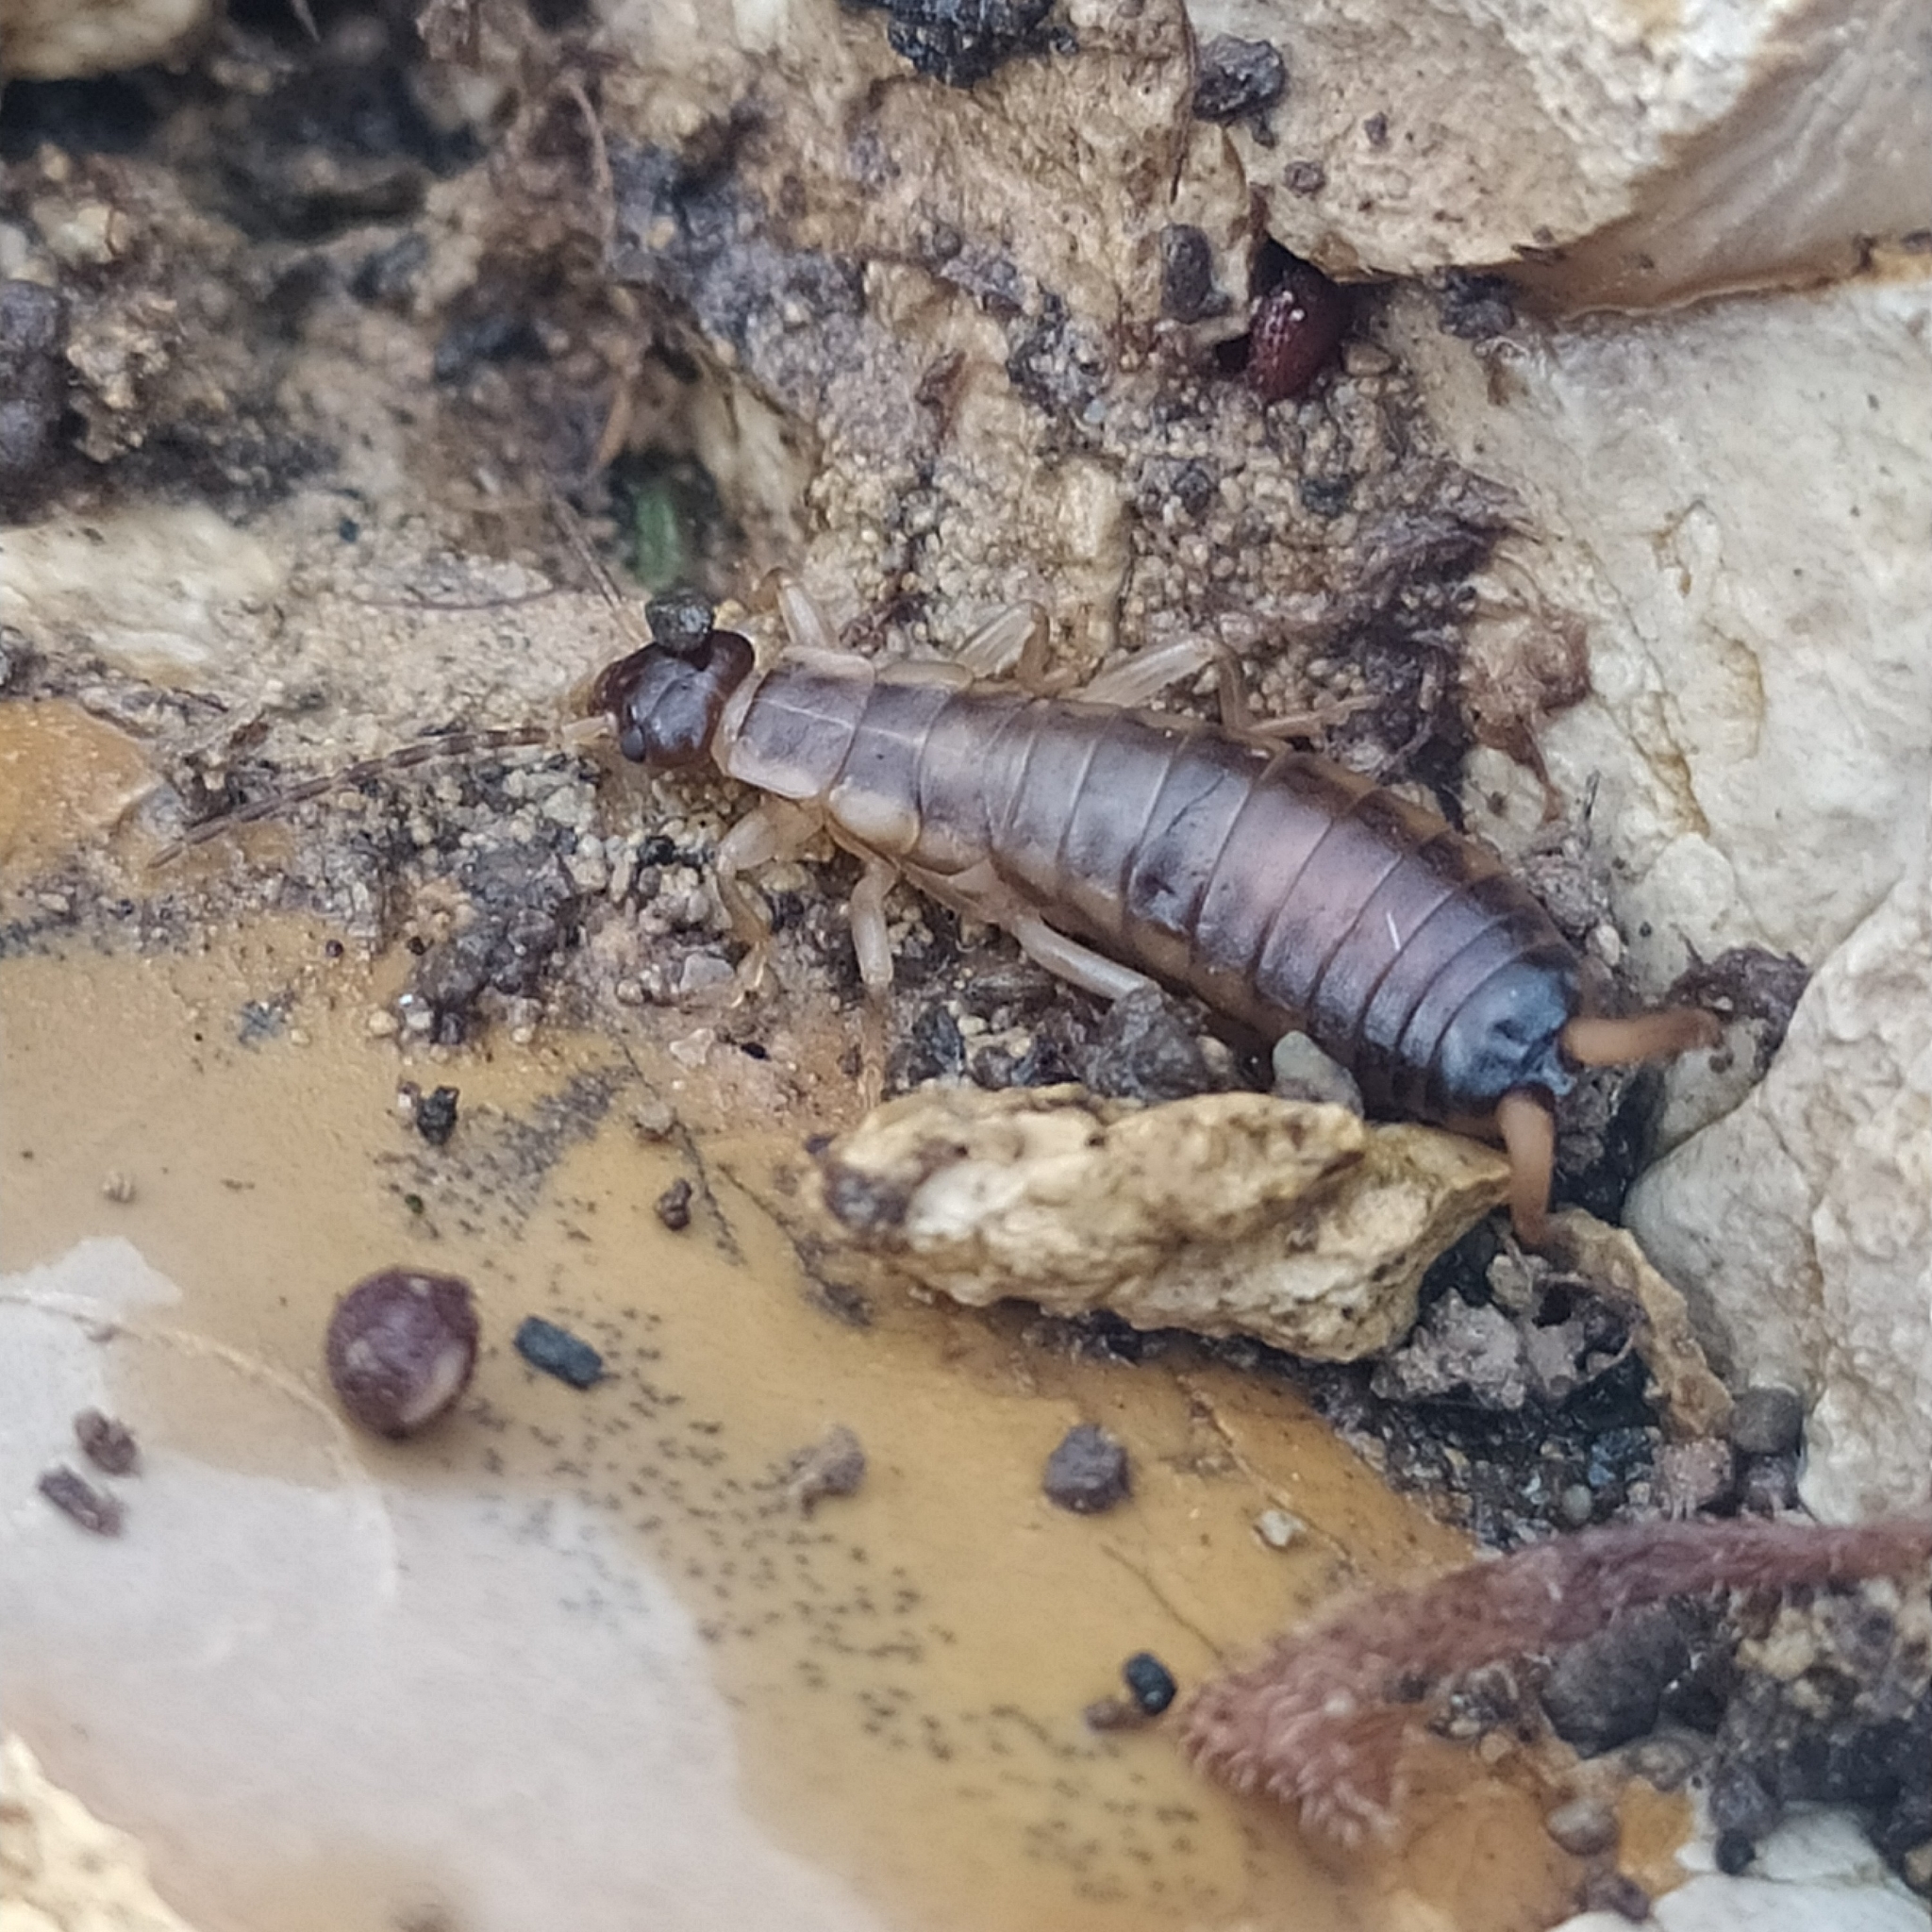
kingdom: Animalia
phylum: Arthropoda
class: Insecta
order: Dermaptera
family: Forficulidae
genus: Forficula
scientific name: Forficula decipiens
